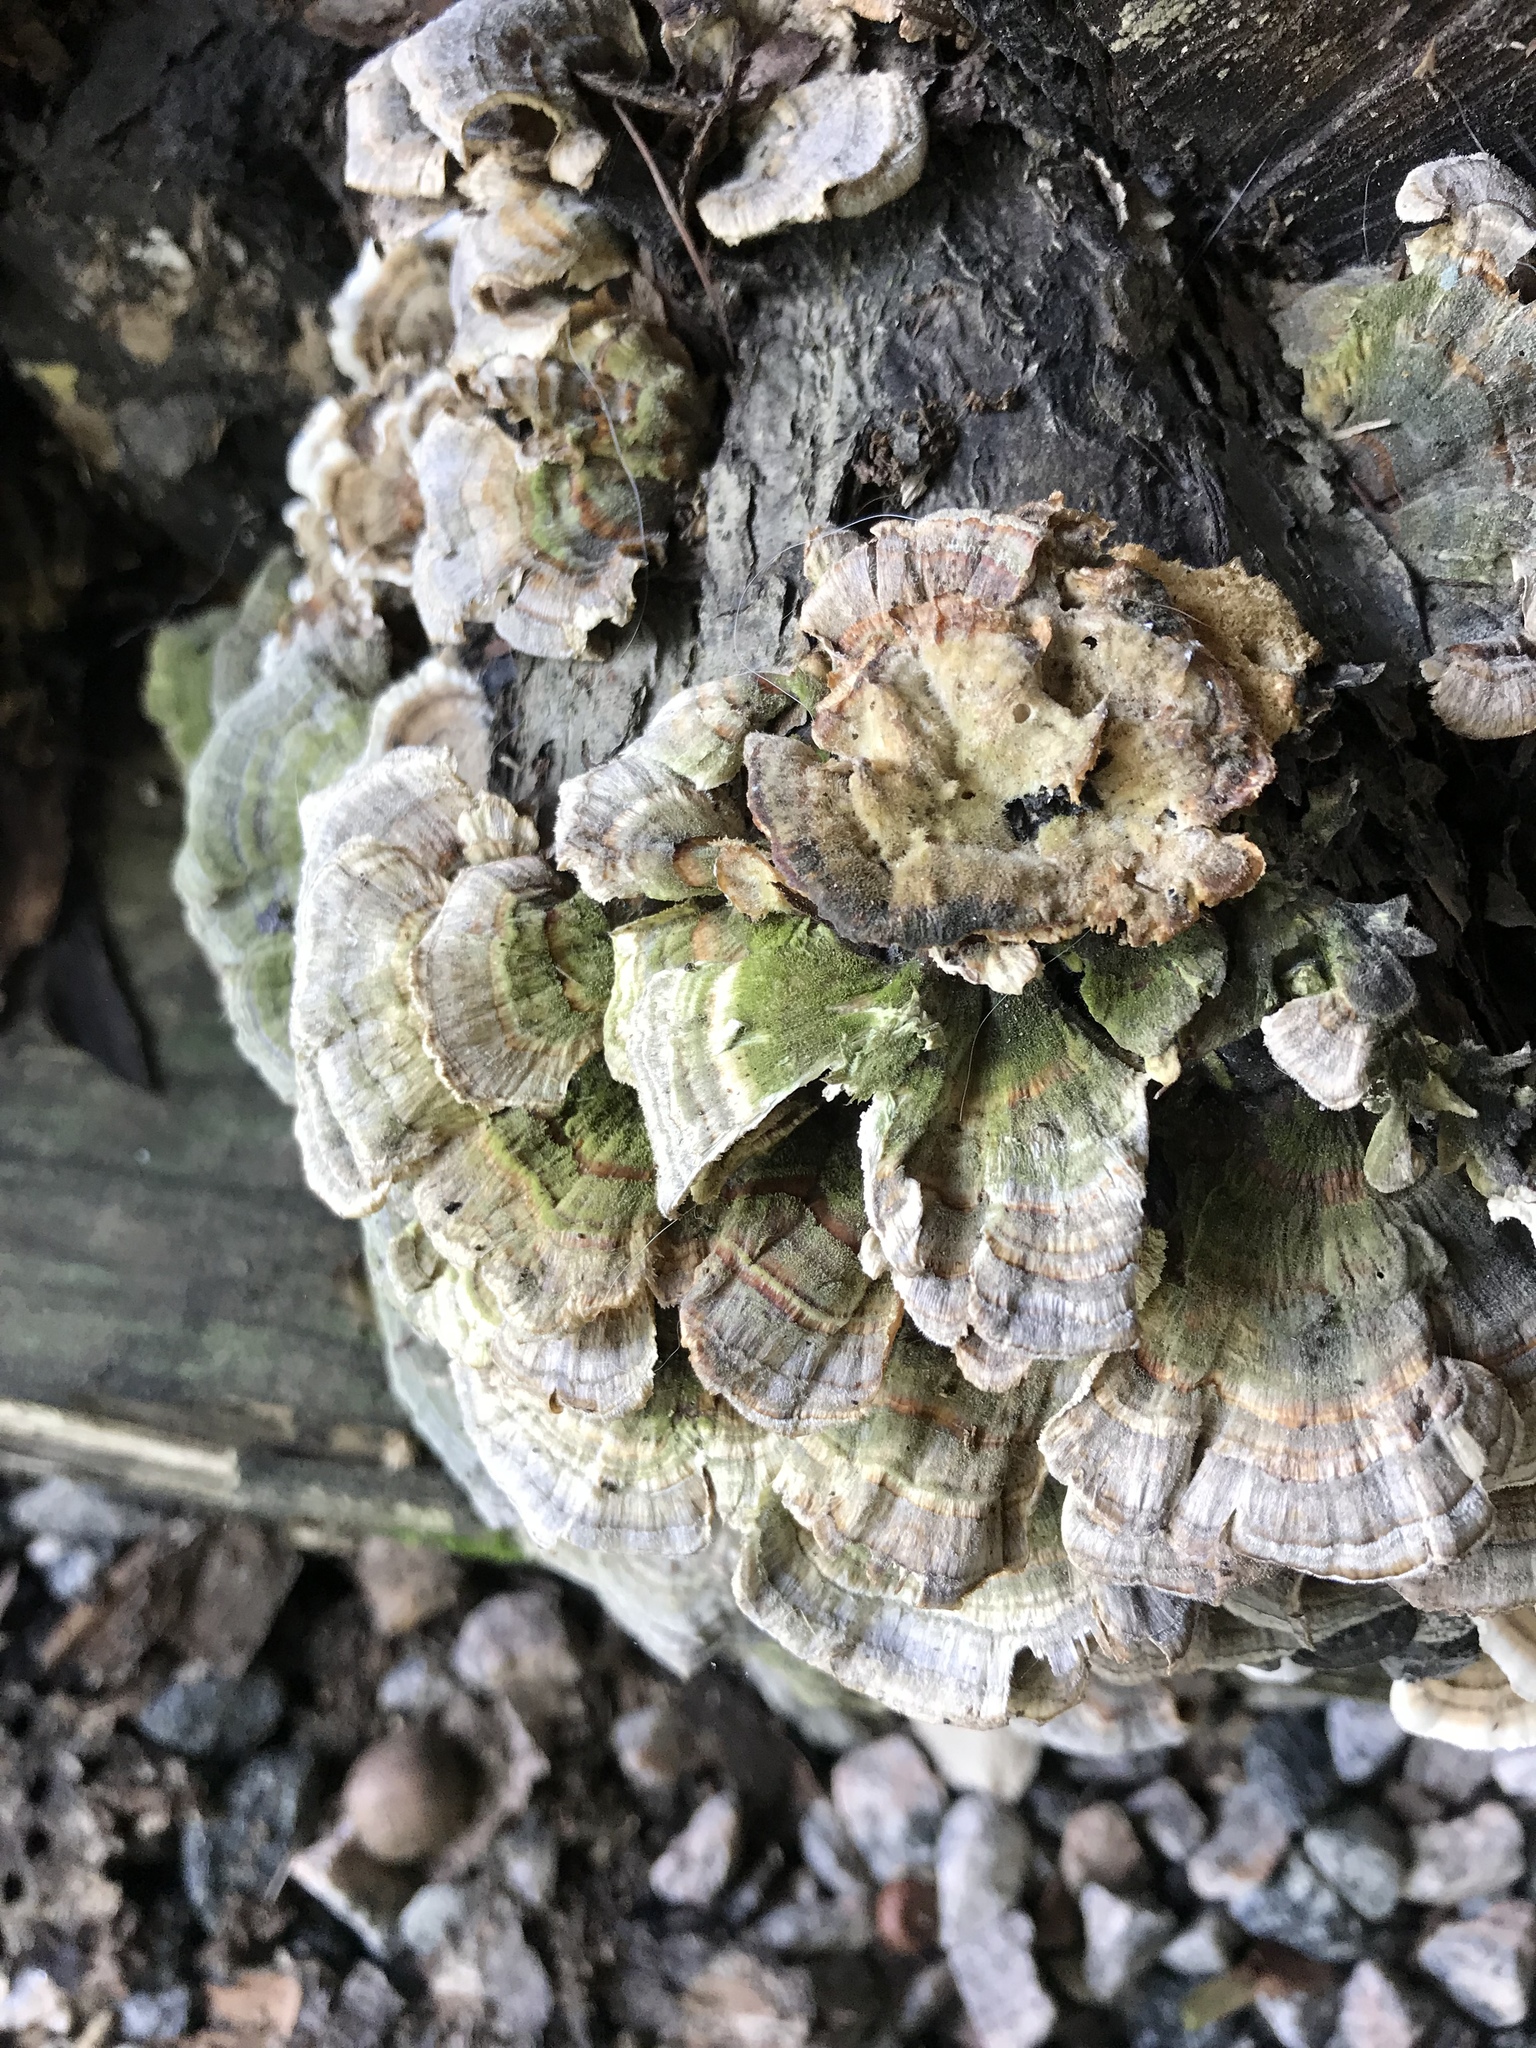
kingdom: Fungi
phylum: Basidiomycota
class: Agaricomycetes
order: Polyporales
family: Polyporaceae
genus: Trametes
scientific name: Trametes versicolor
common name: Turkeytail
